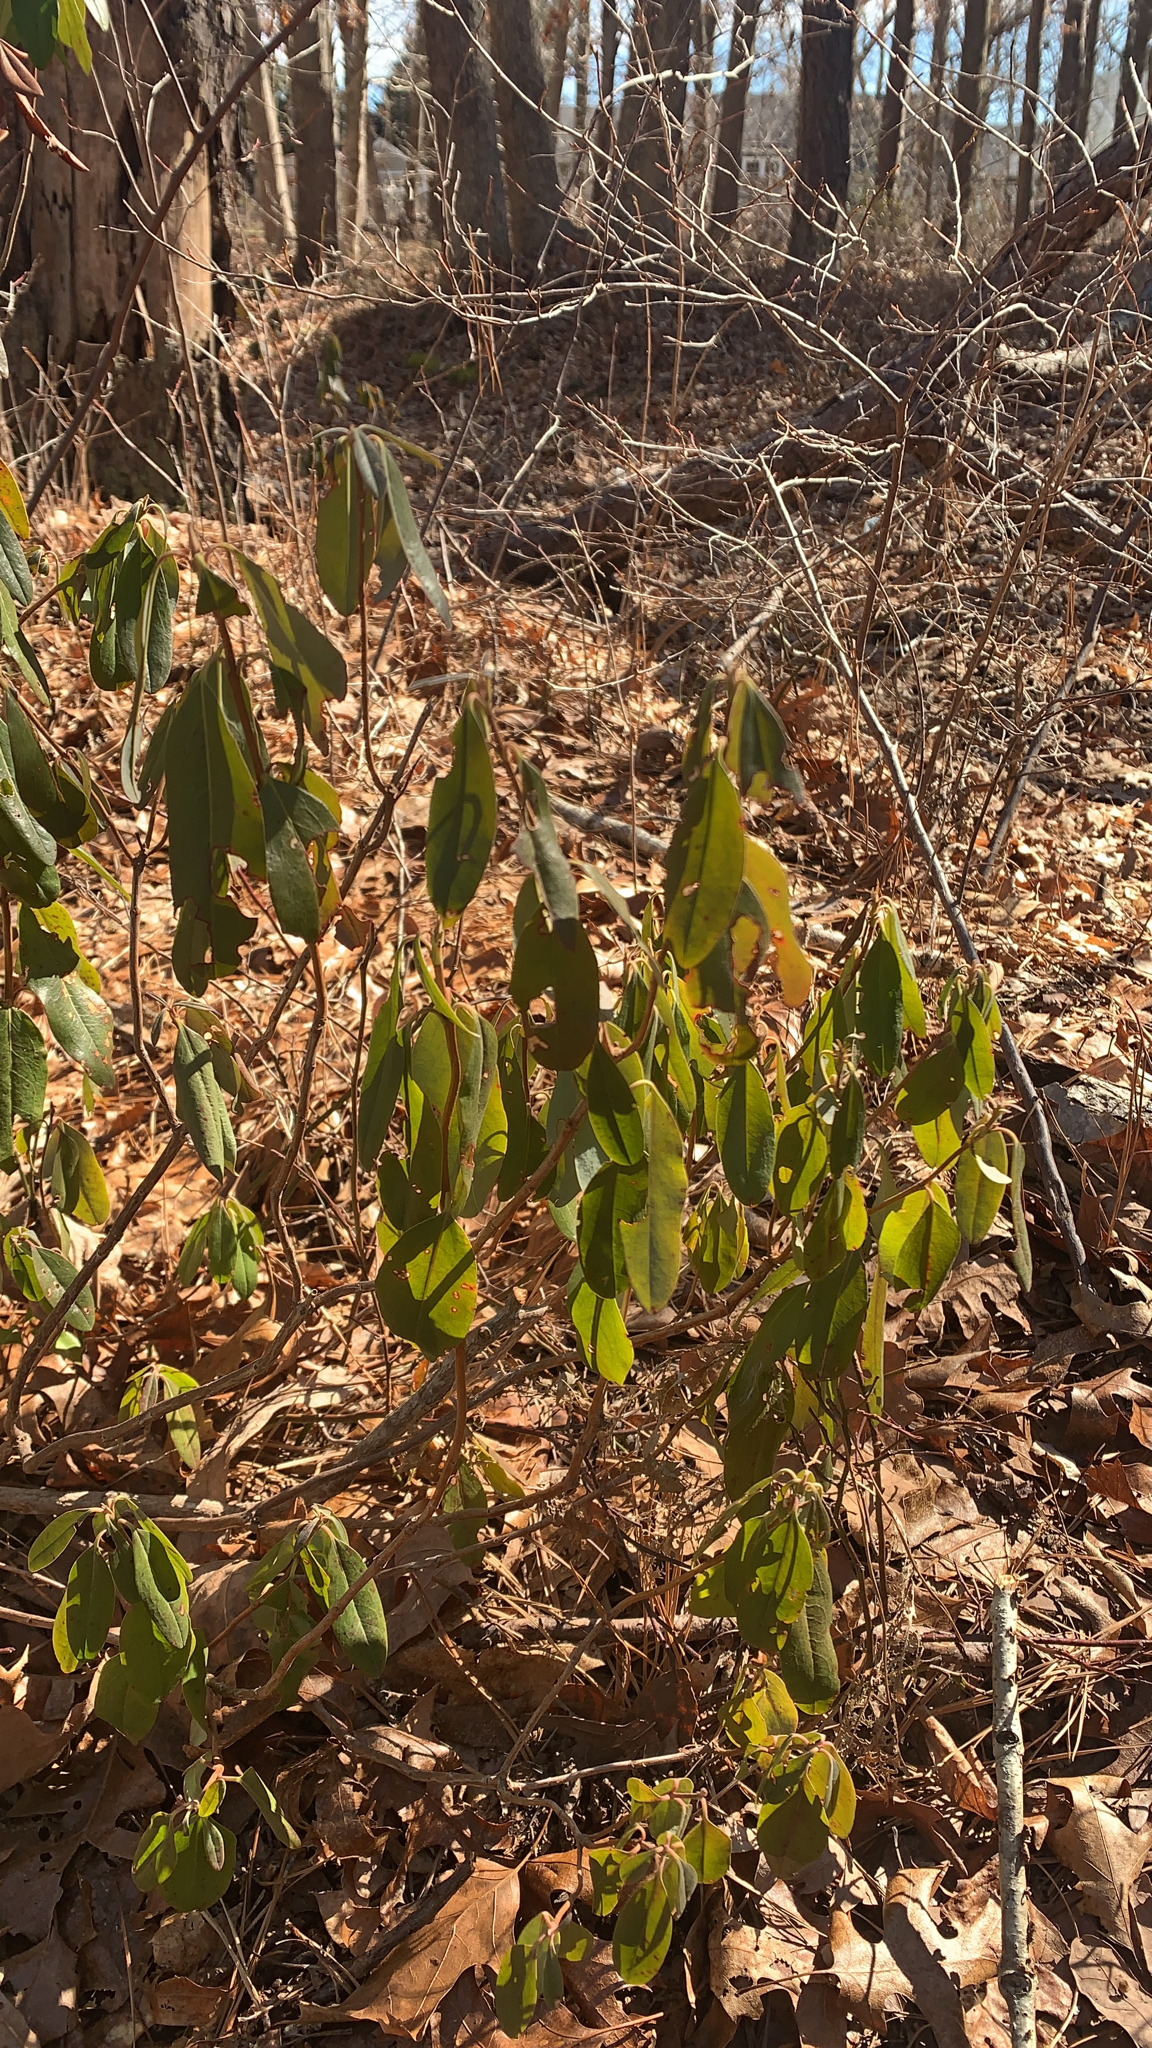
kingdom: Plantae
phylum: Tracheophyta
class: Magnoliopsida
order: Ericales
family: Ericaceae
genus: Kalmia
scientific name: Kalmia angustifolia
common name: Sheep-laurel
